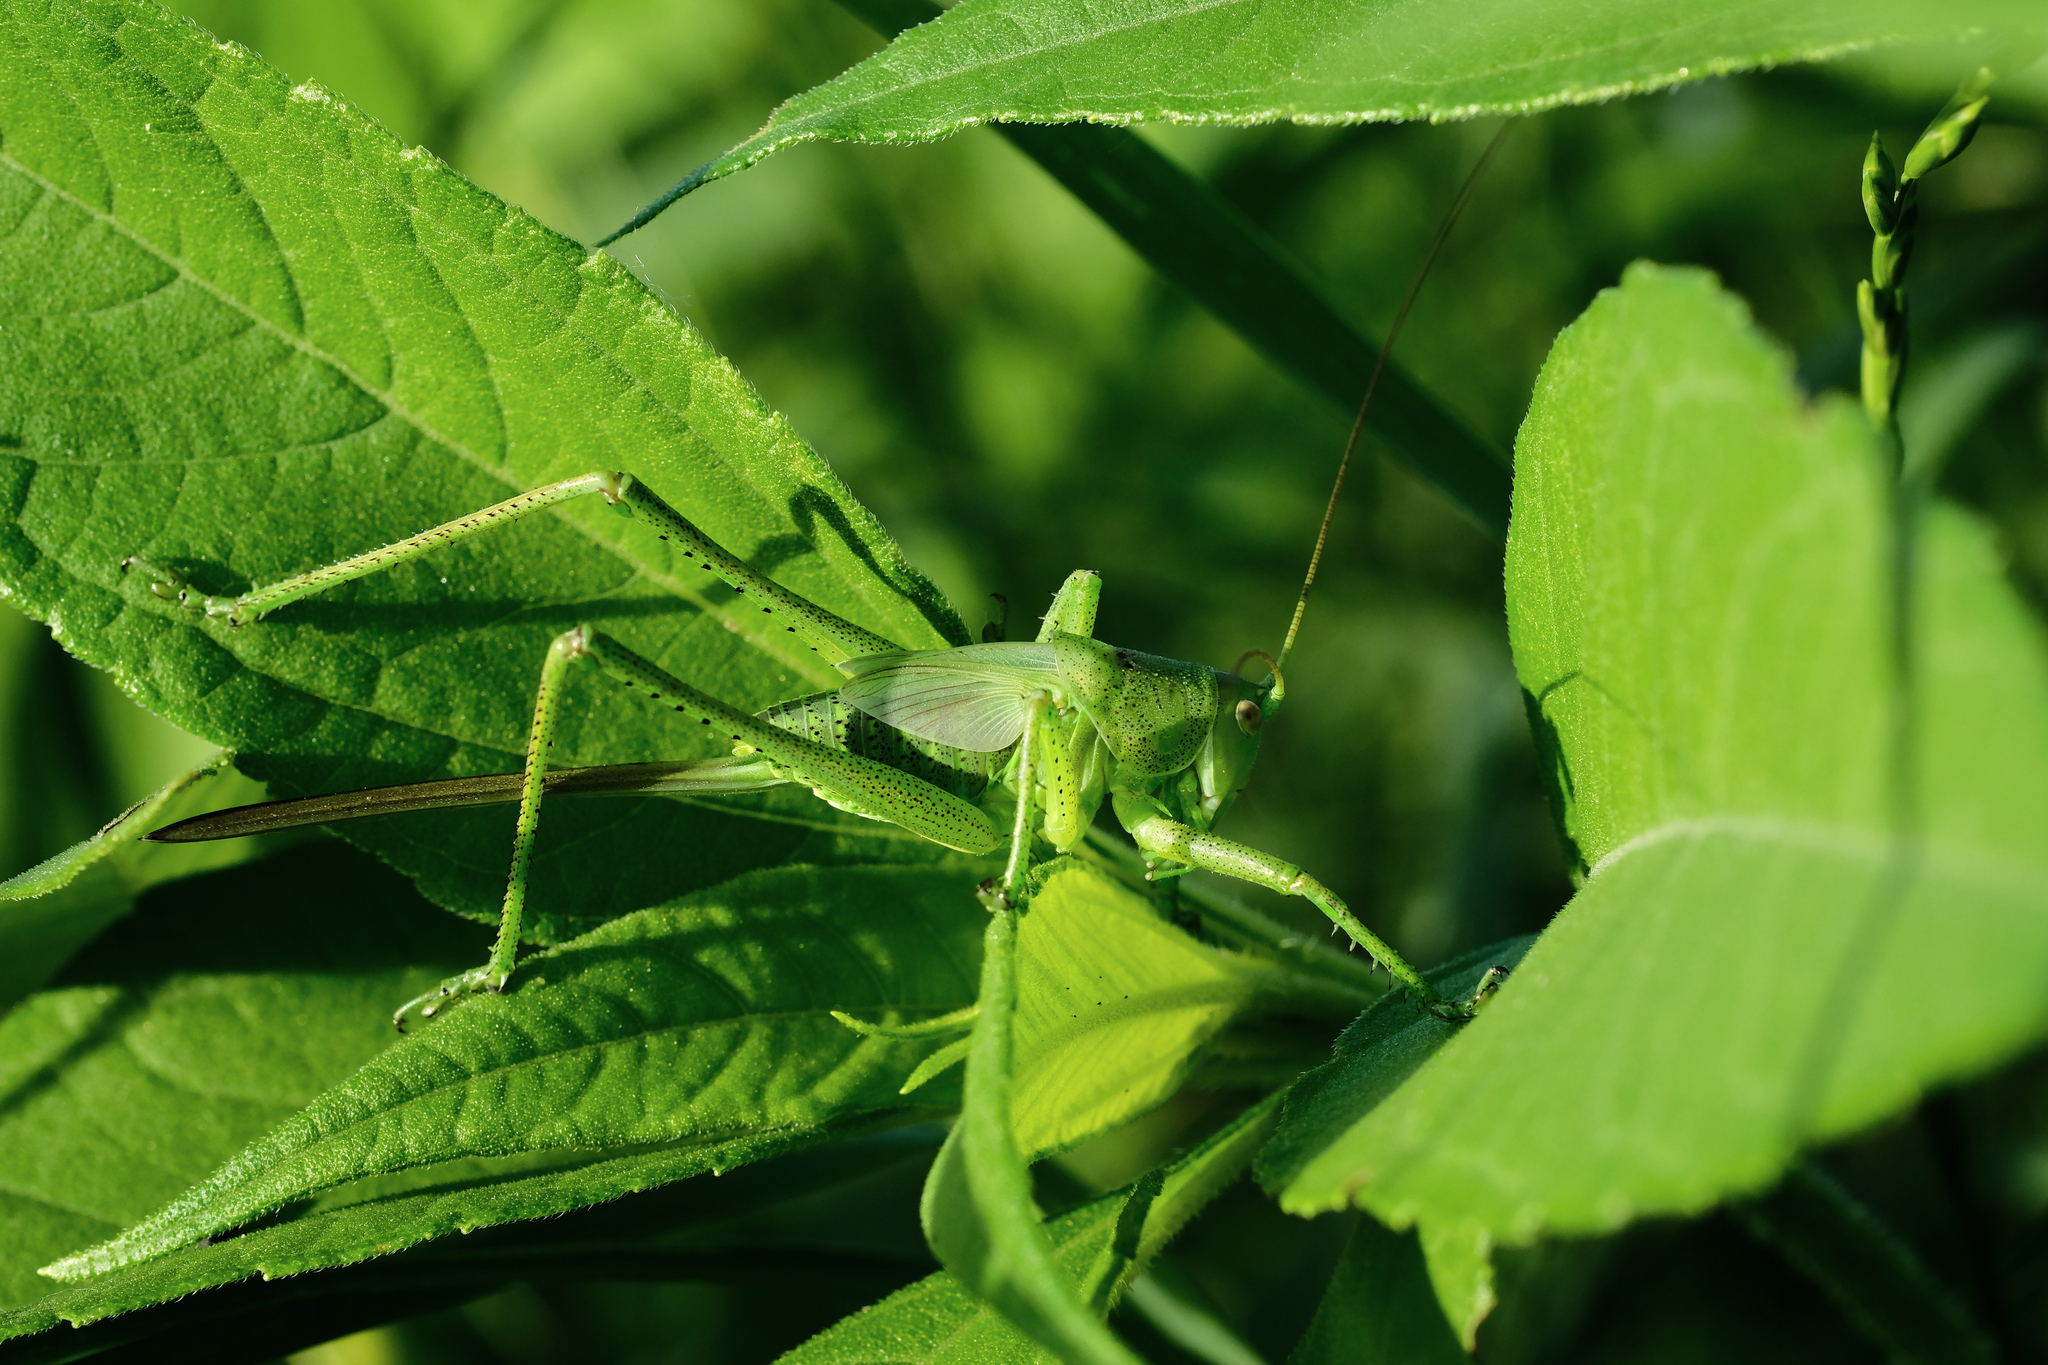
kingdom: Animalia
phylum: Arthropoda
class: Insecta
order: Orthoptera
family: Tettigoniidae
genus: Tettigonia
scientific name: Tettigonia caudata
